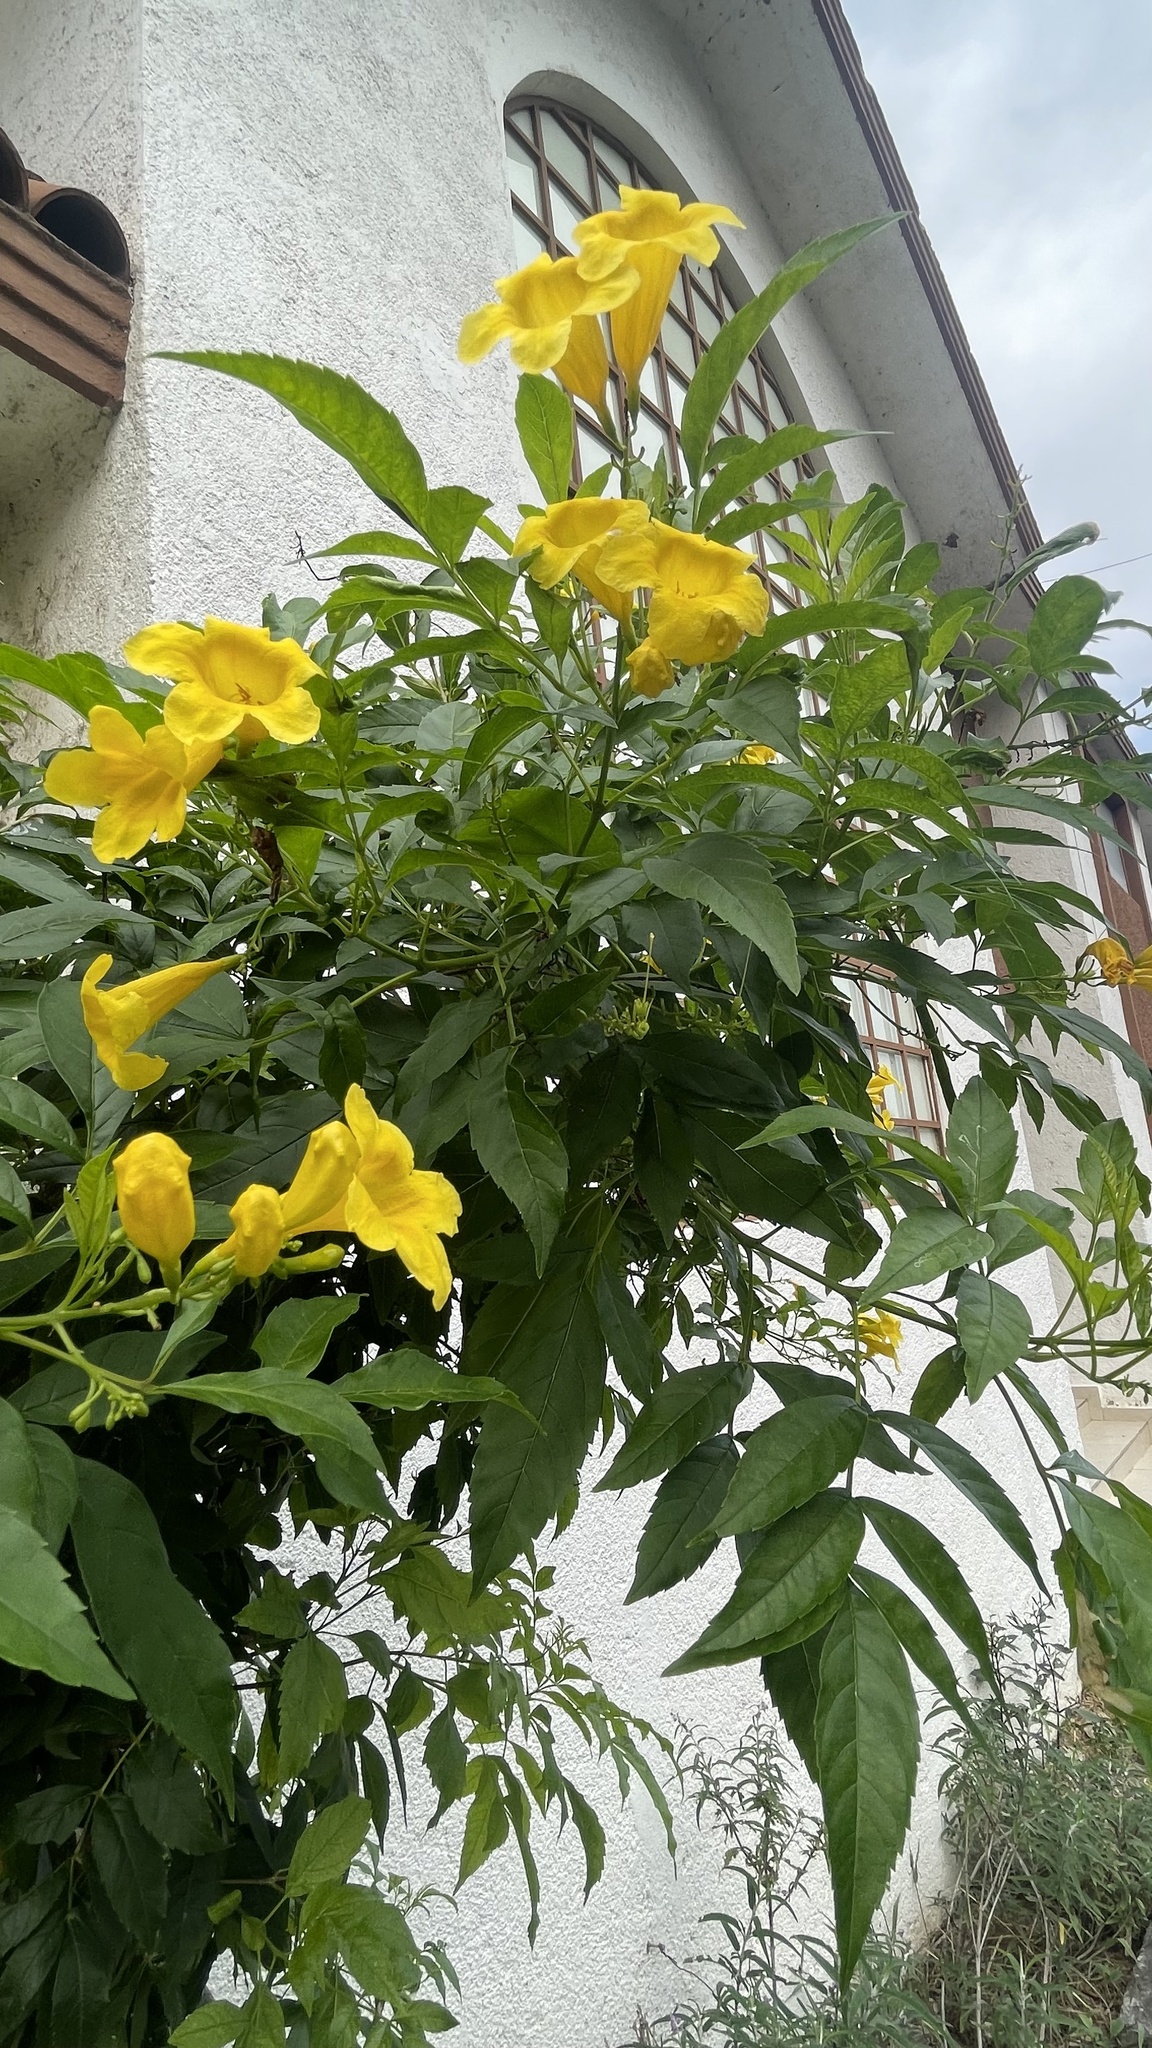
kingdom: Plantae
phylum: Tracheophyta
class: Magnoliopsida
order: Lamiales
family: Bignoniaceae
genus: Tecoma
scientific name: Tecoma stans
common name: Yellow trumpetbush
